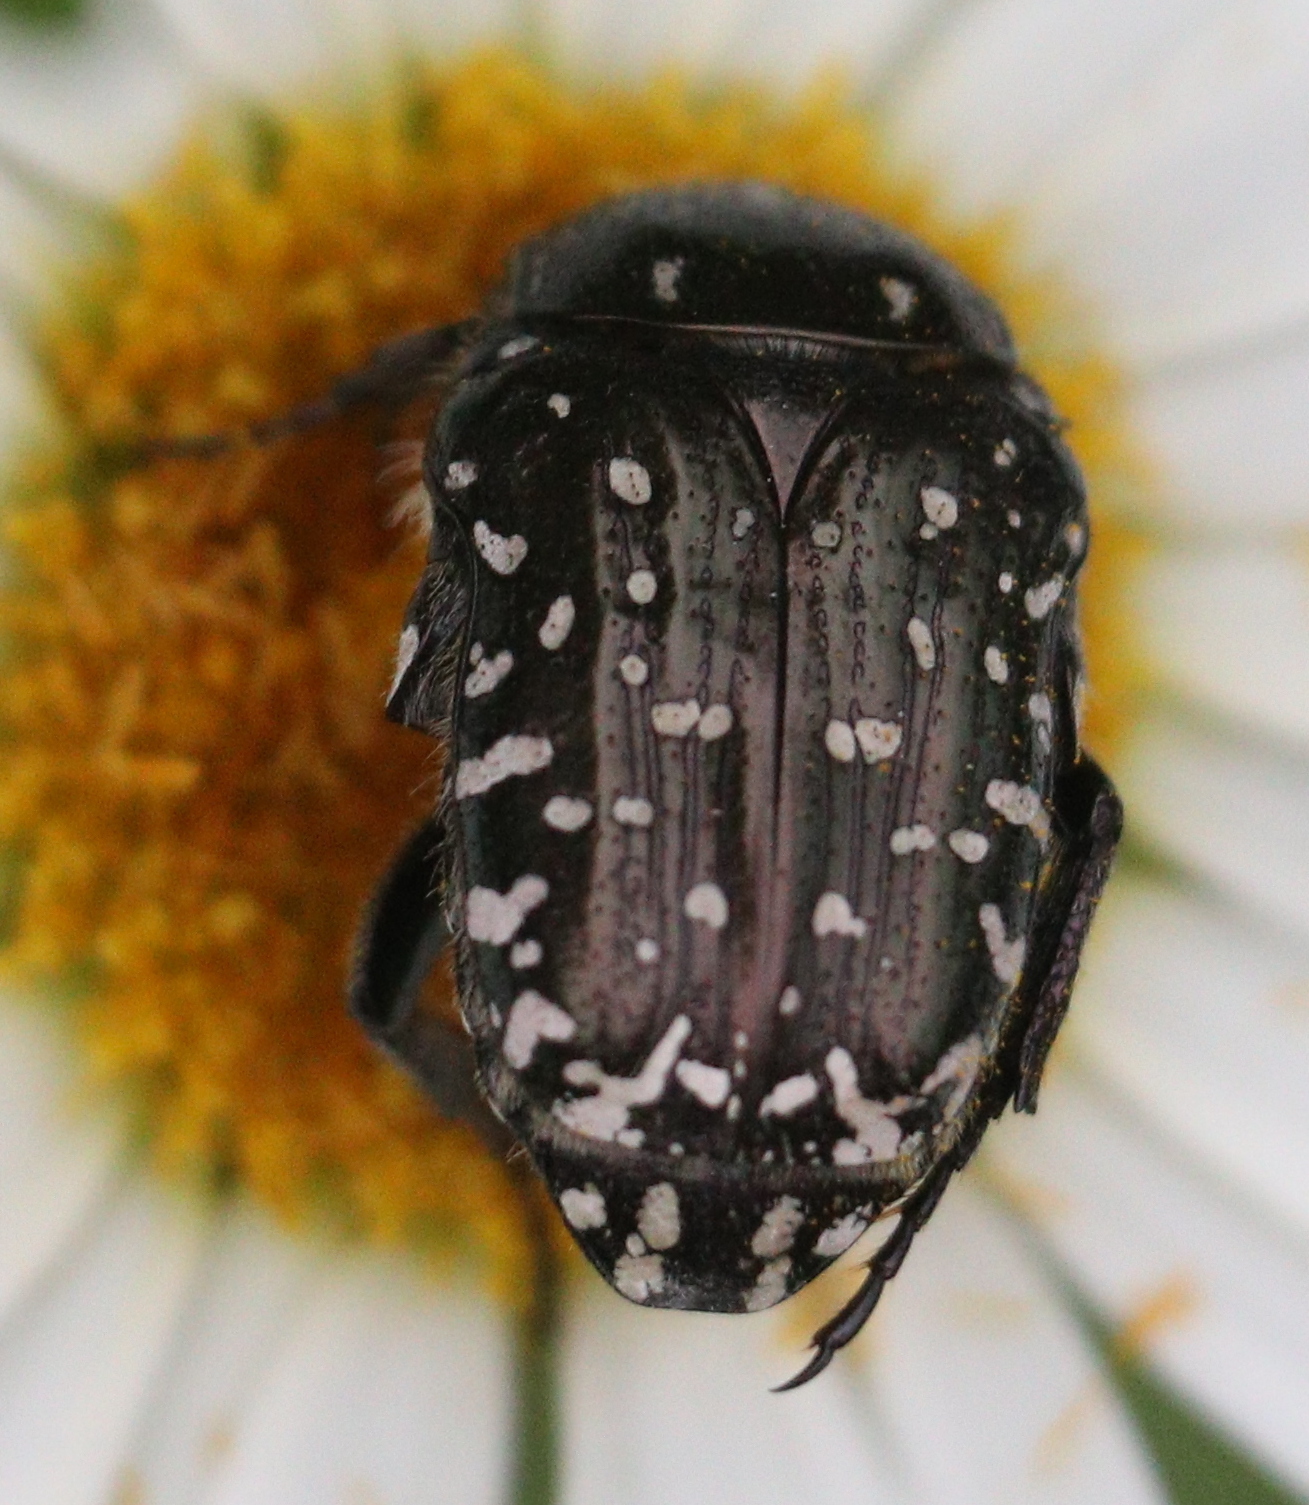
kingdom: Animalia
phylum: Arthropoda
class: Insecta
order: Coleoptera
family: Scarabaeidae
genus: Oxythyrea
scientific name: Oxythyrea funesta
